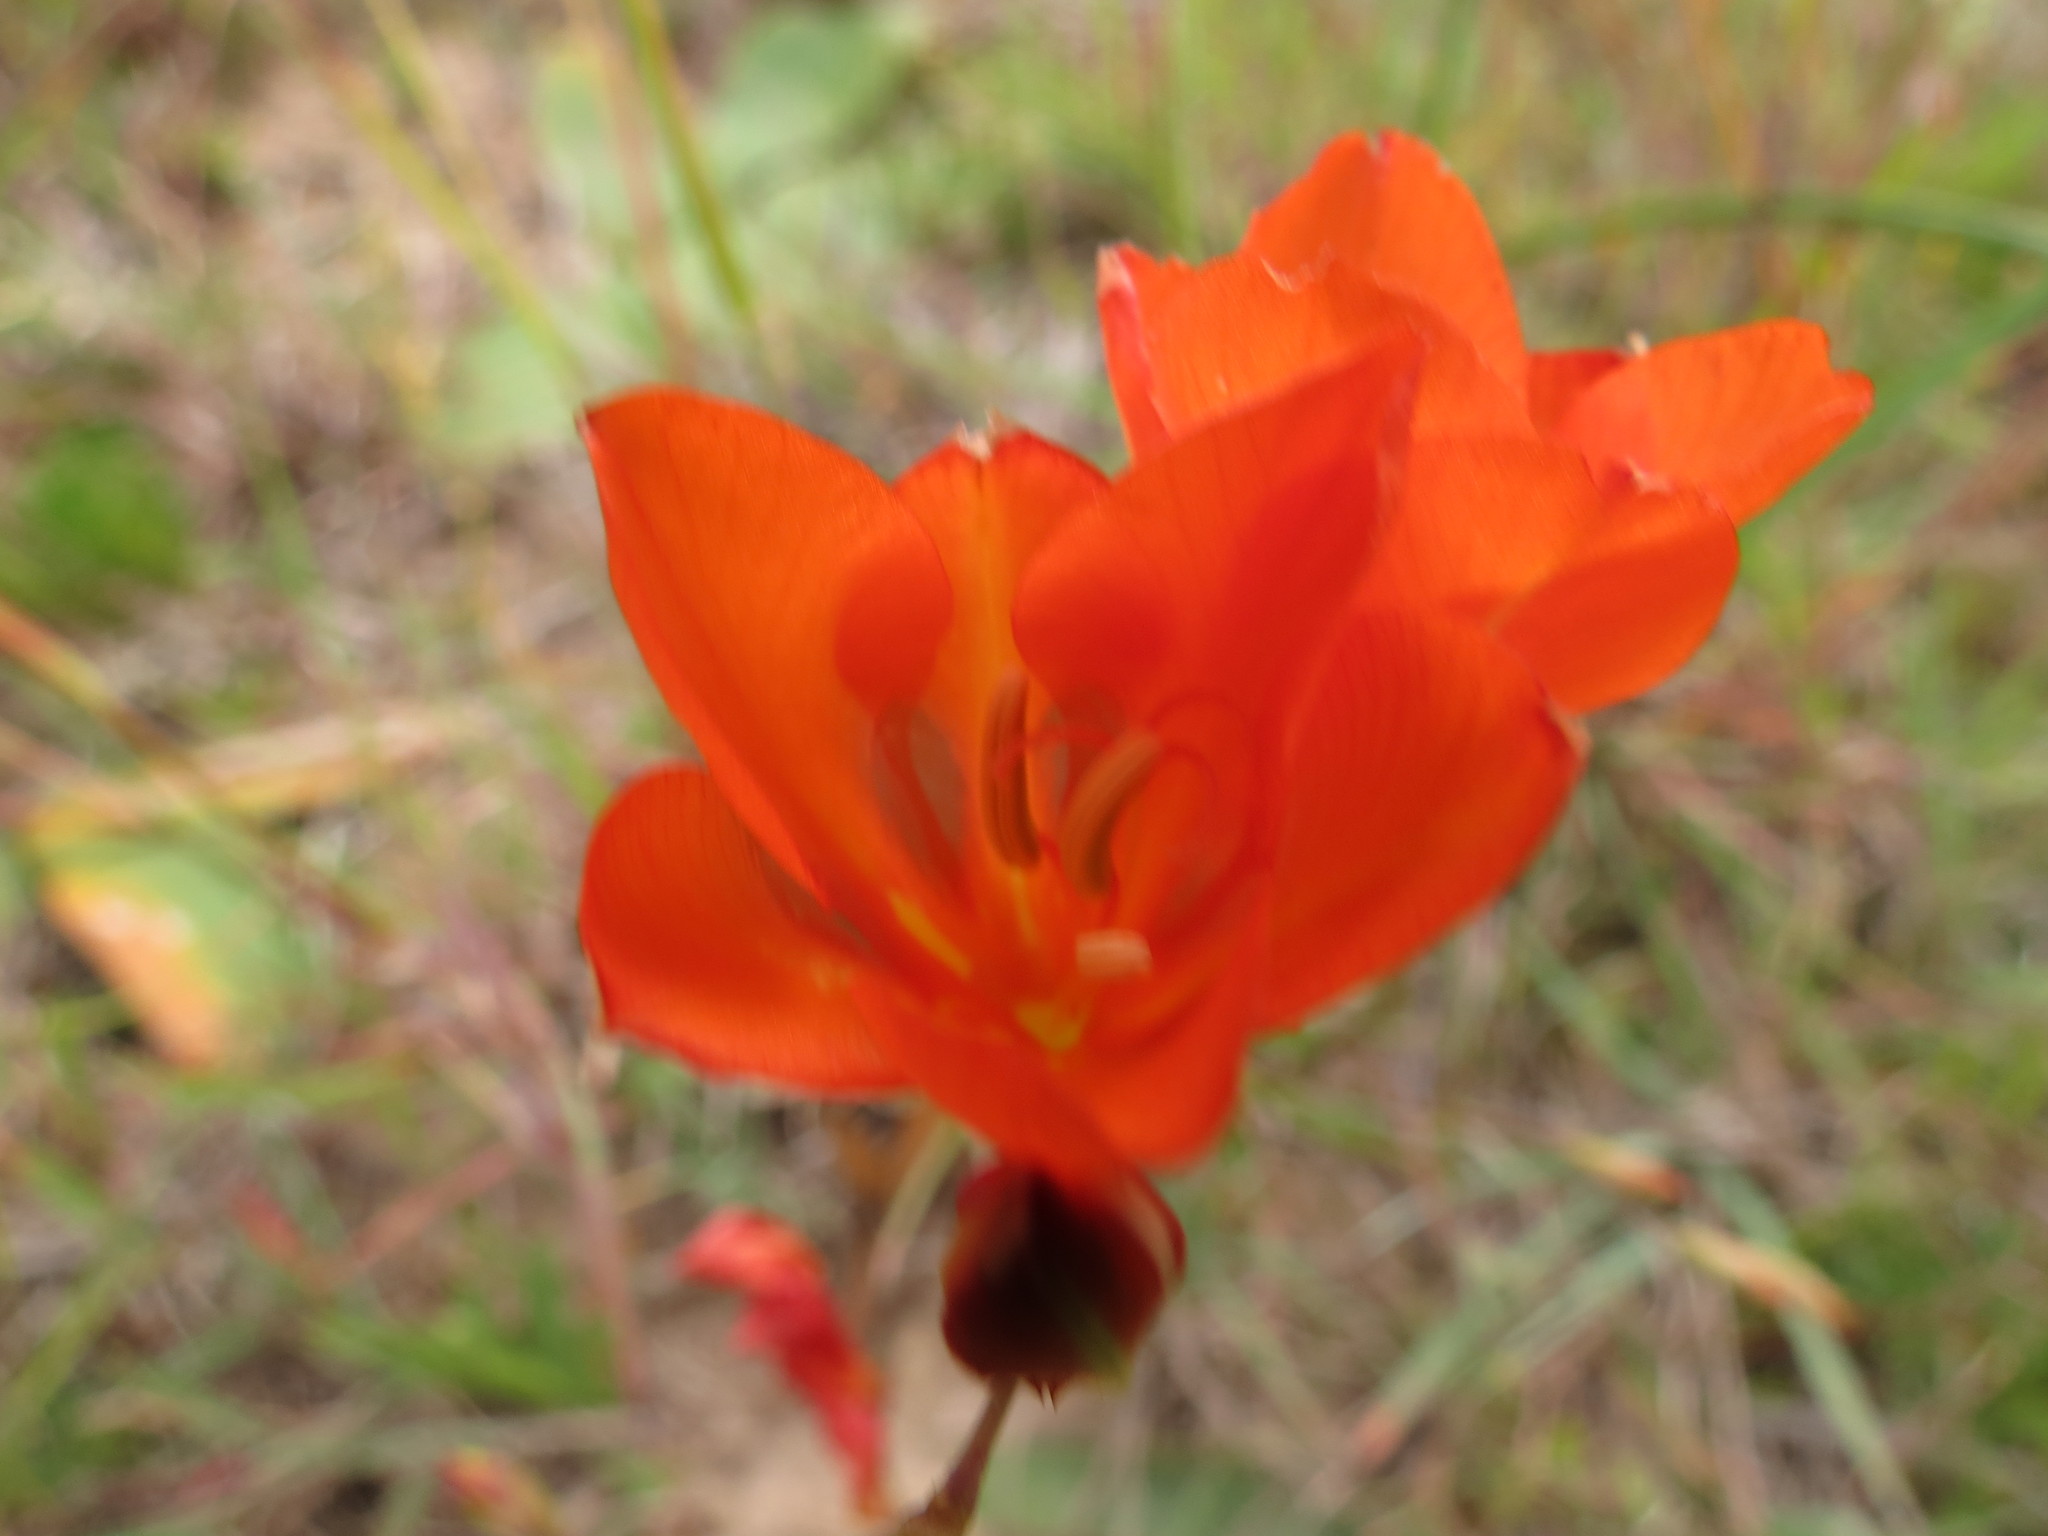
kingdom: Plantae
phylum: Tracheophyta
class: Liliopsida
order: Asparagales
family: Iridaceae
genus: Tritonia
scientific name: Tritonia crocata
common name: Flame-freesia
